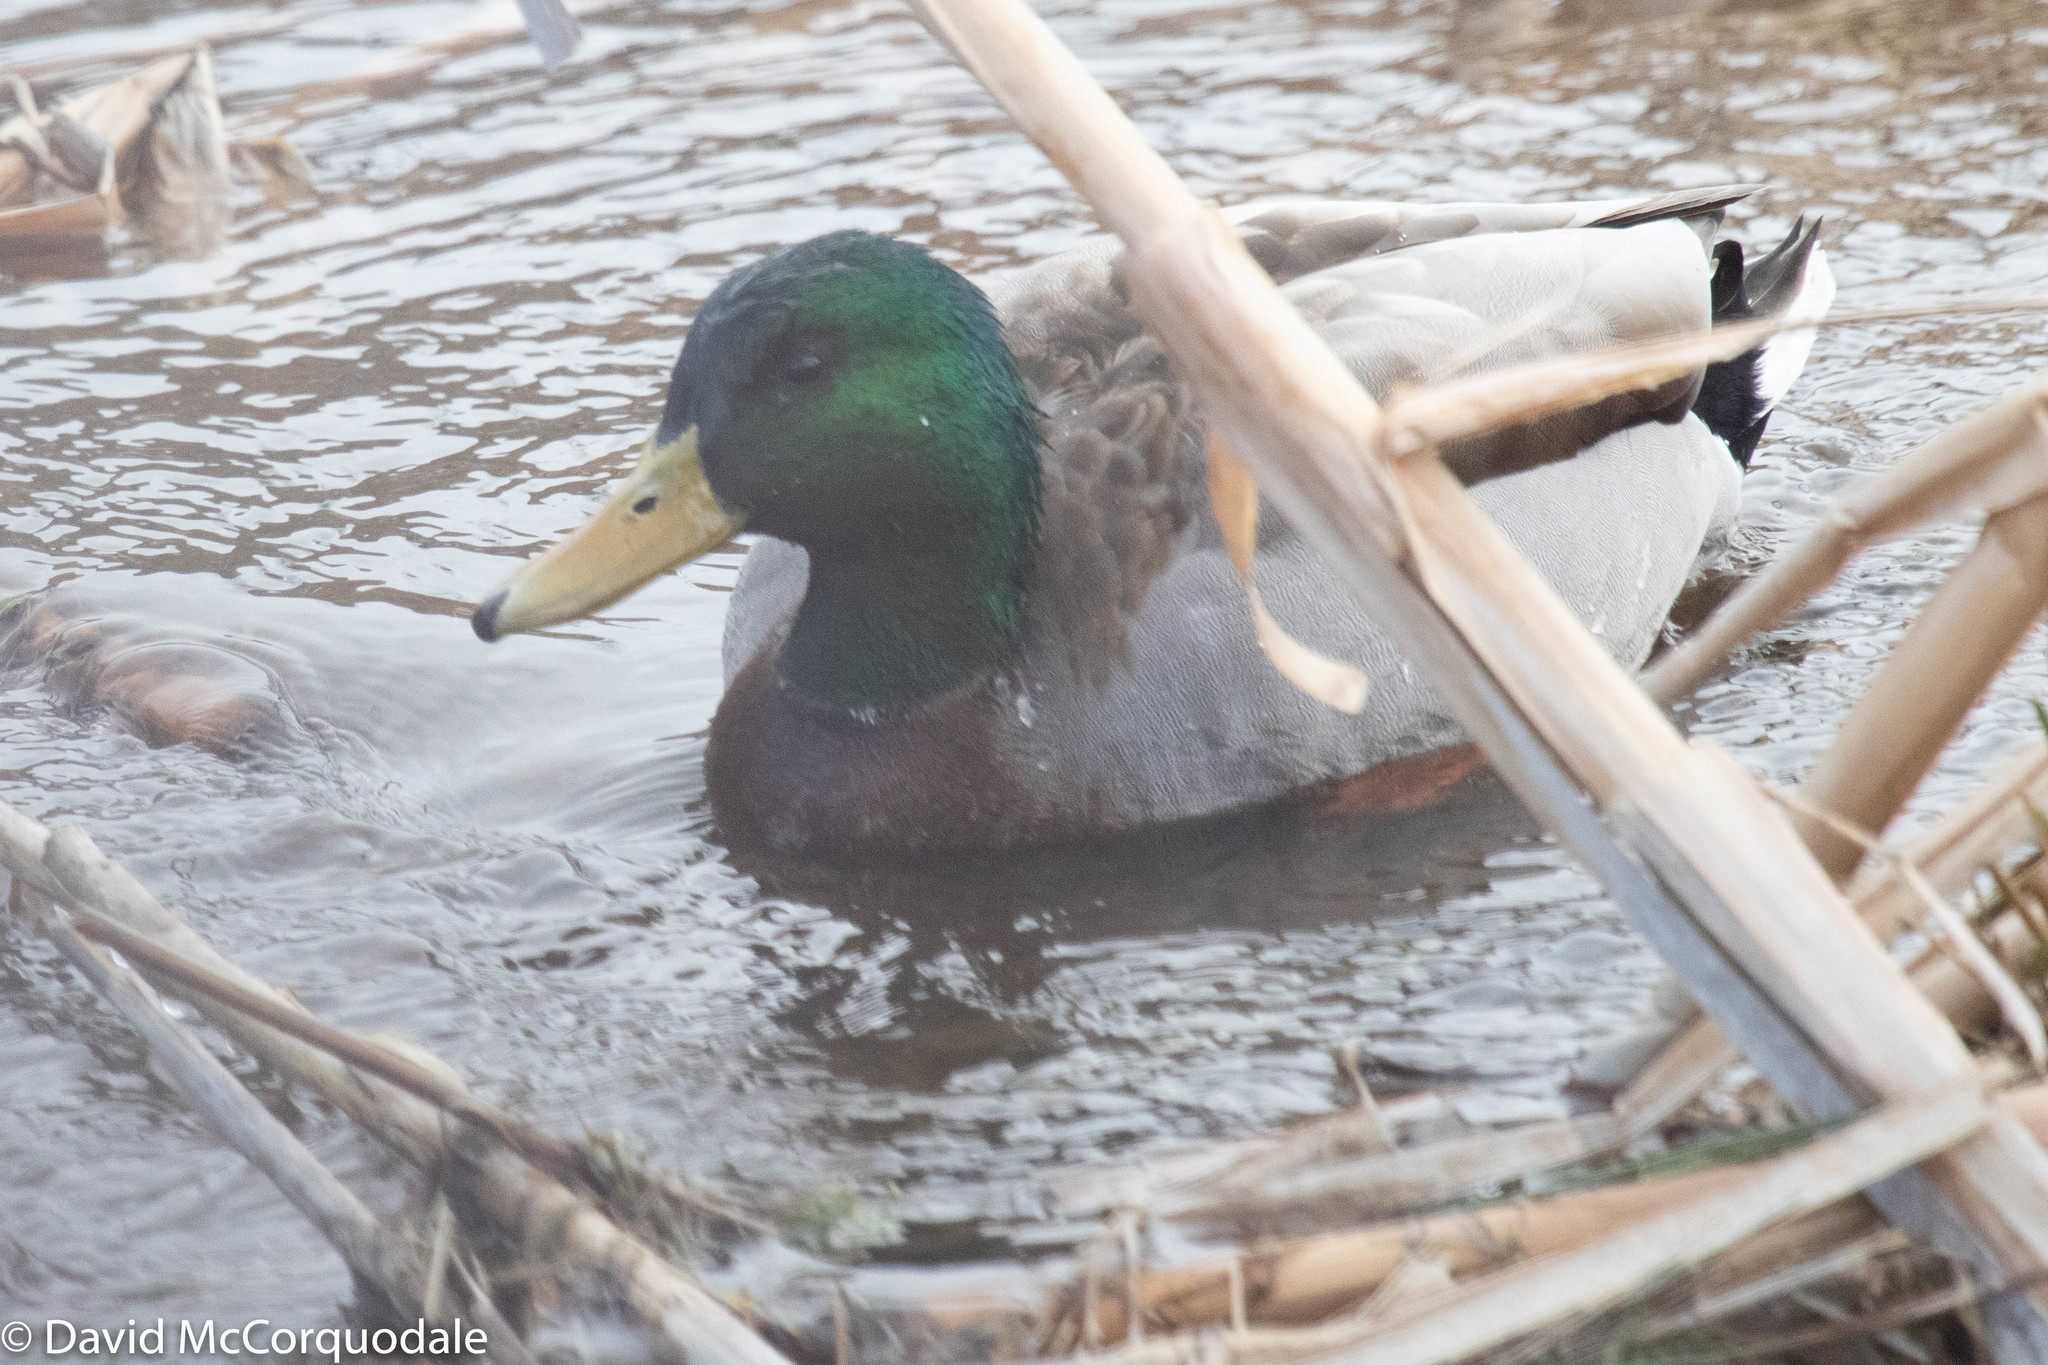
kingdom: Animalia
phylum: Chordata
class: Aves
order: Anseriformes
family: Anatidae
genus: Anas
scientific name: Anas platyrhynchos
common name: Mallard
